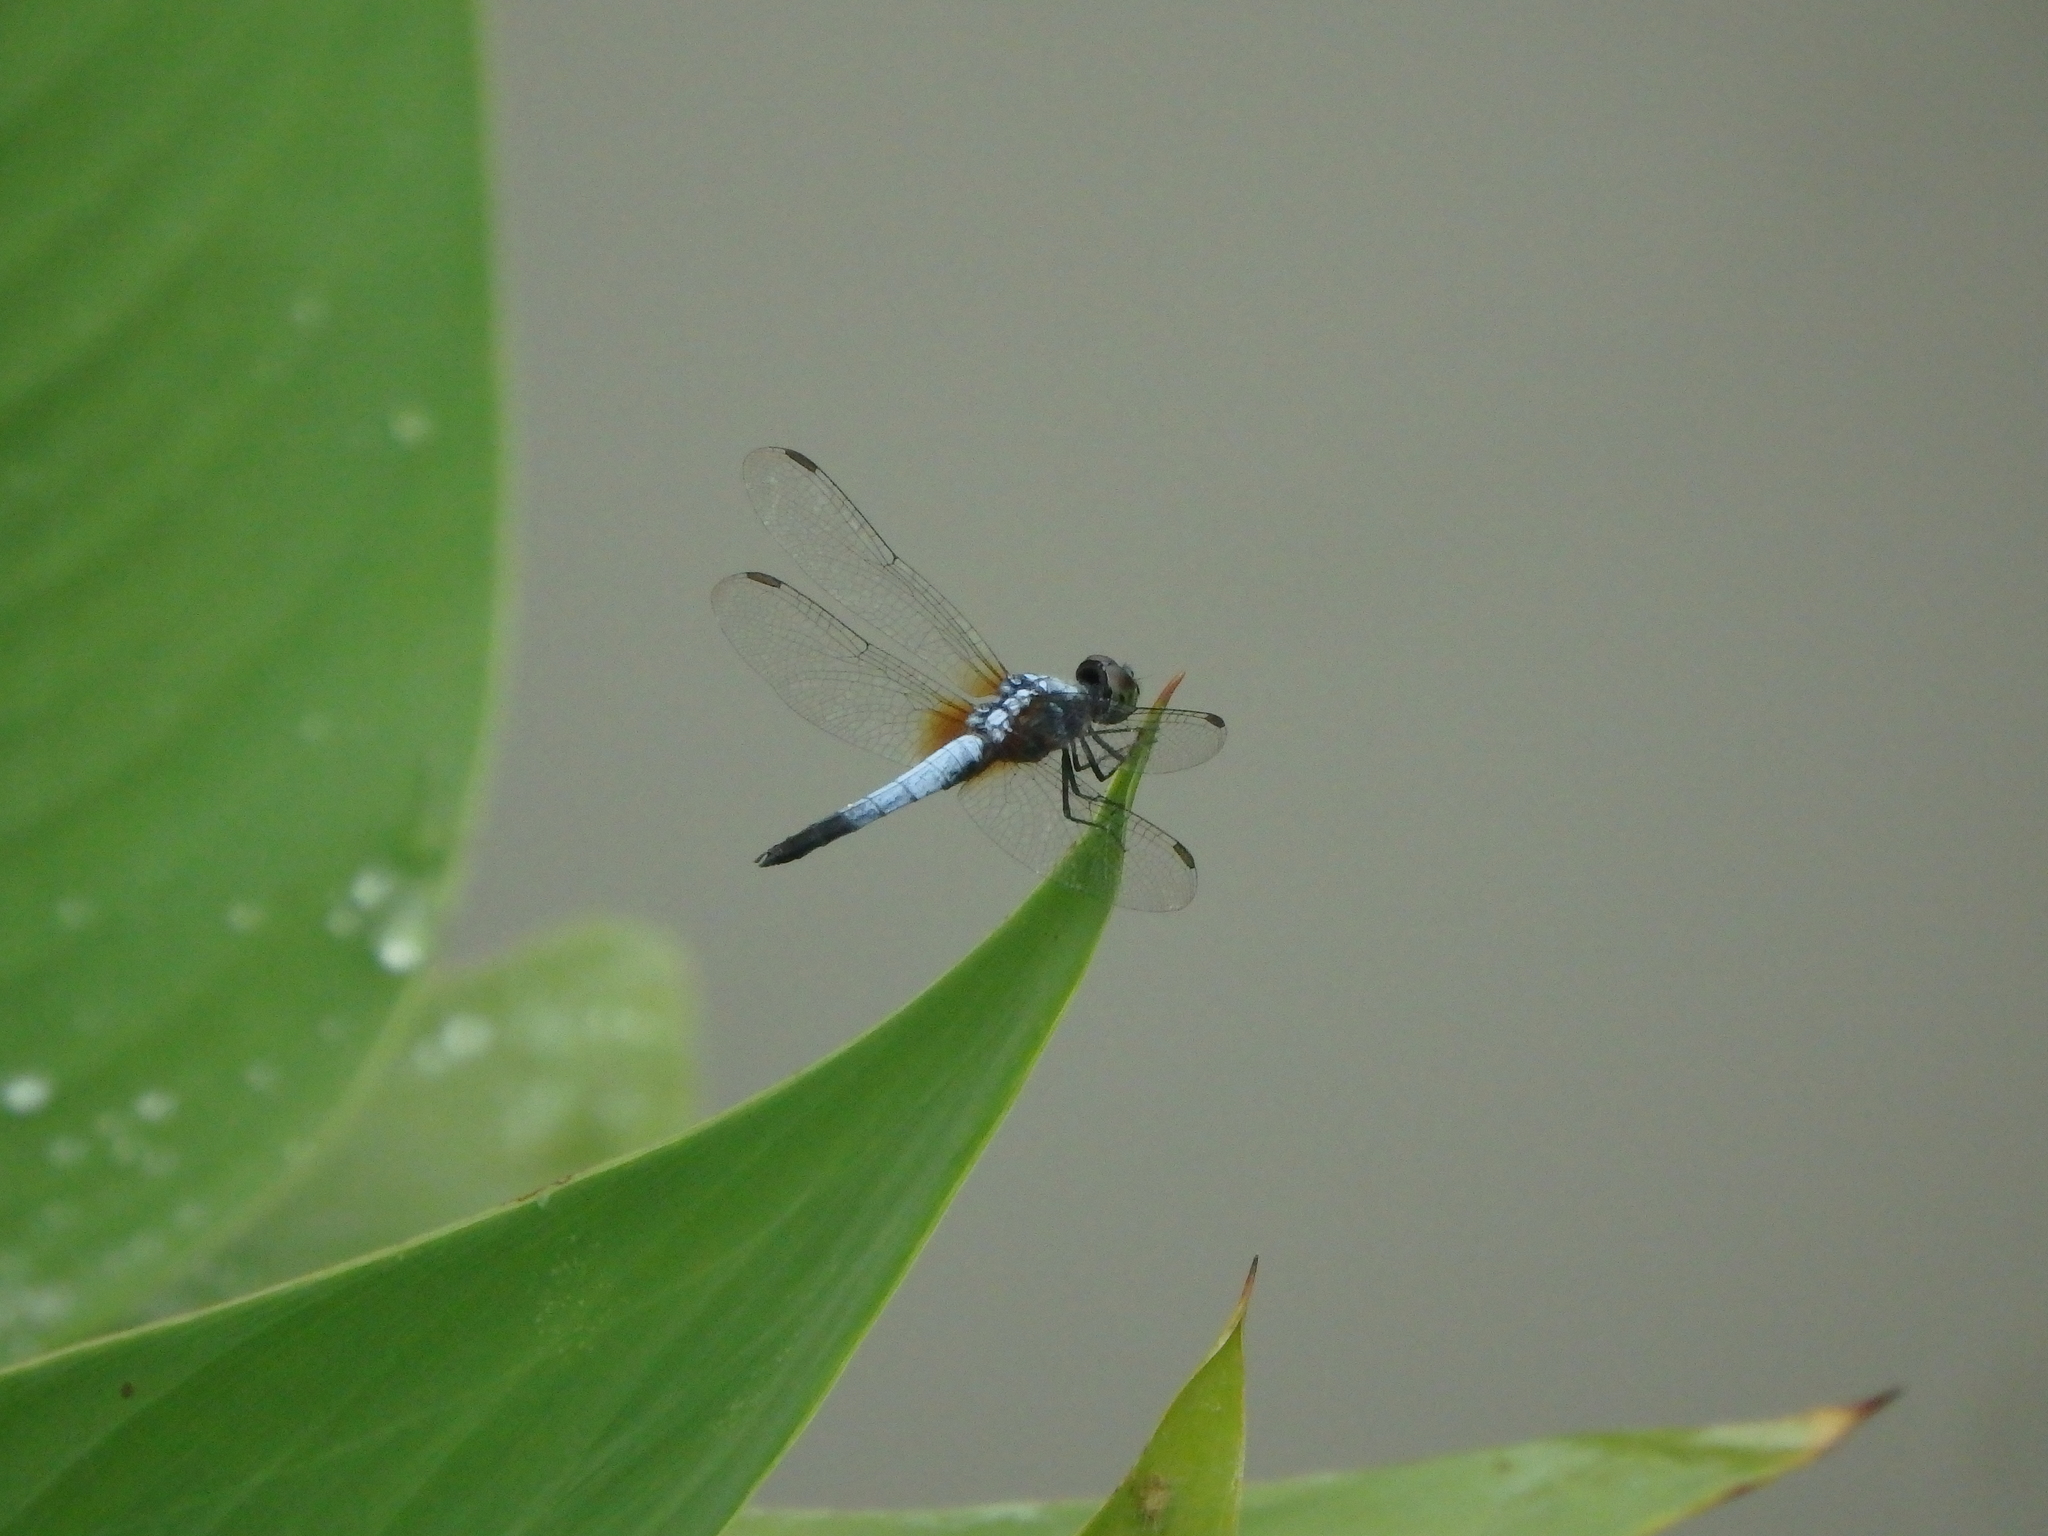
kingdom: Animalia
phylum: Arthropoda
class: Insecta
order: Odonata
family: Libellulidae
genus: Brachydiplax
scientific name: Brachydiplax chalybea
